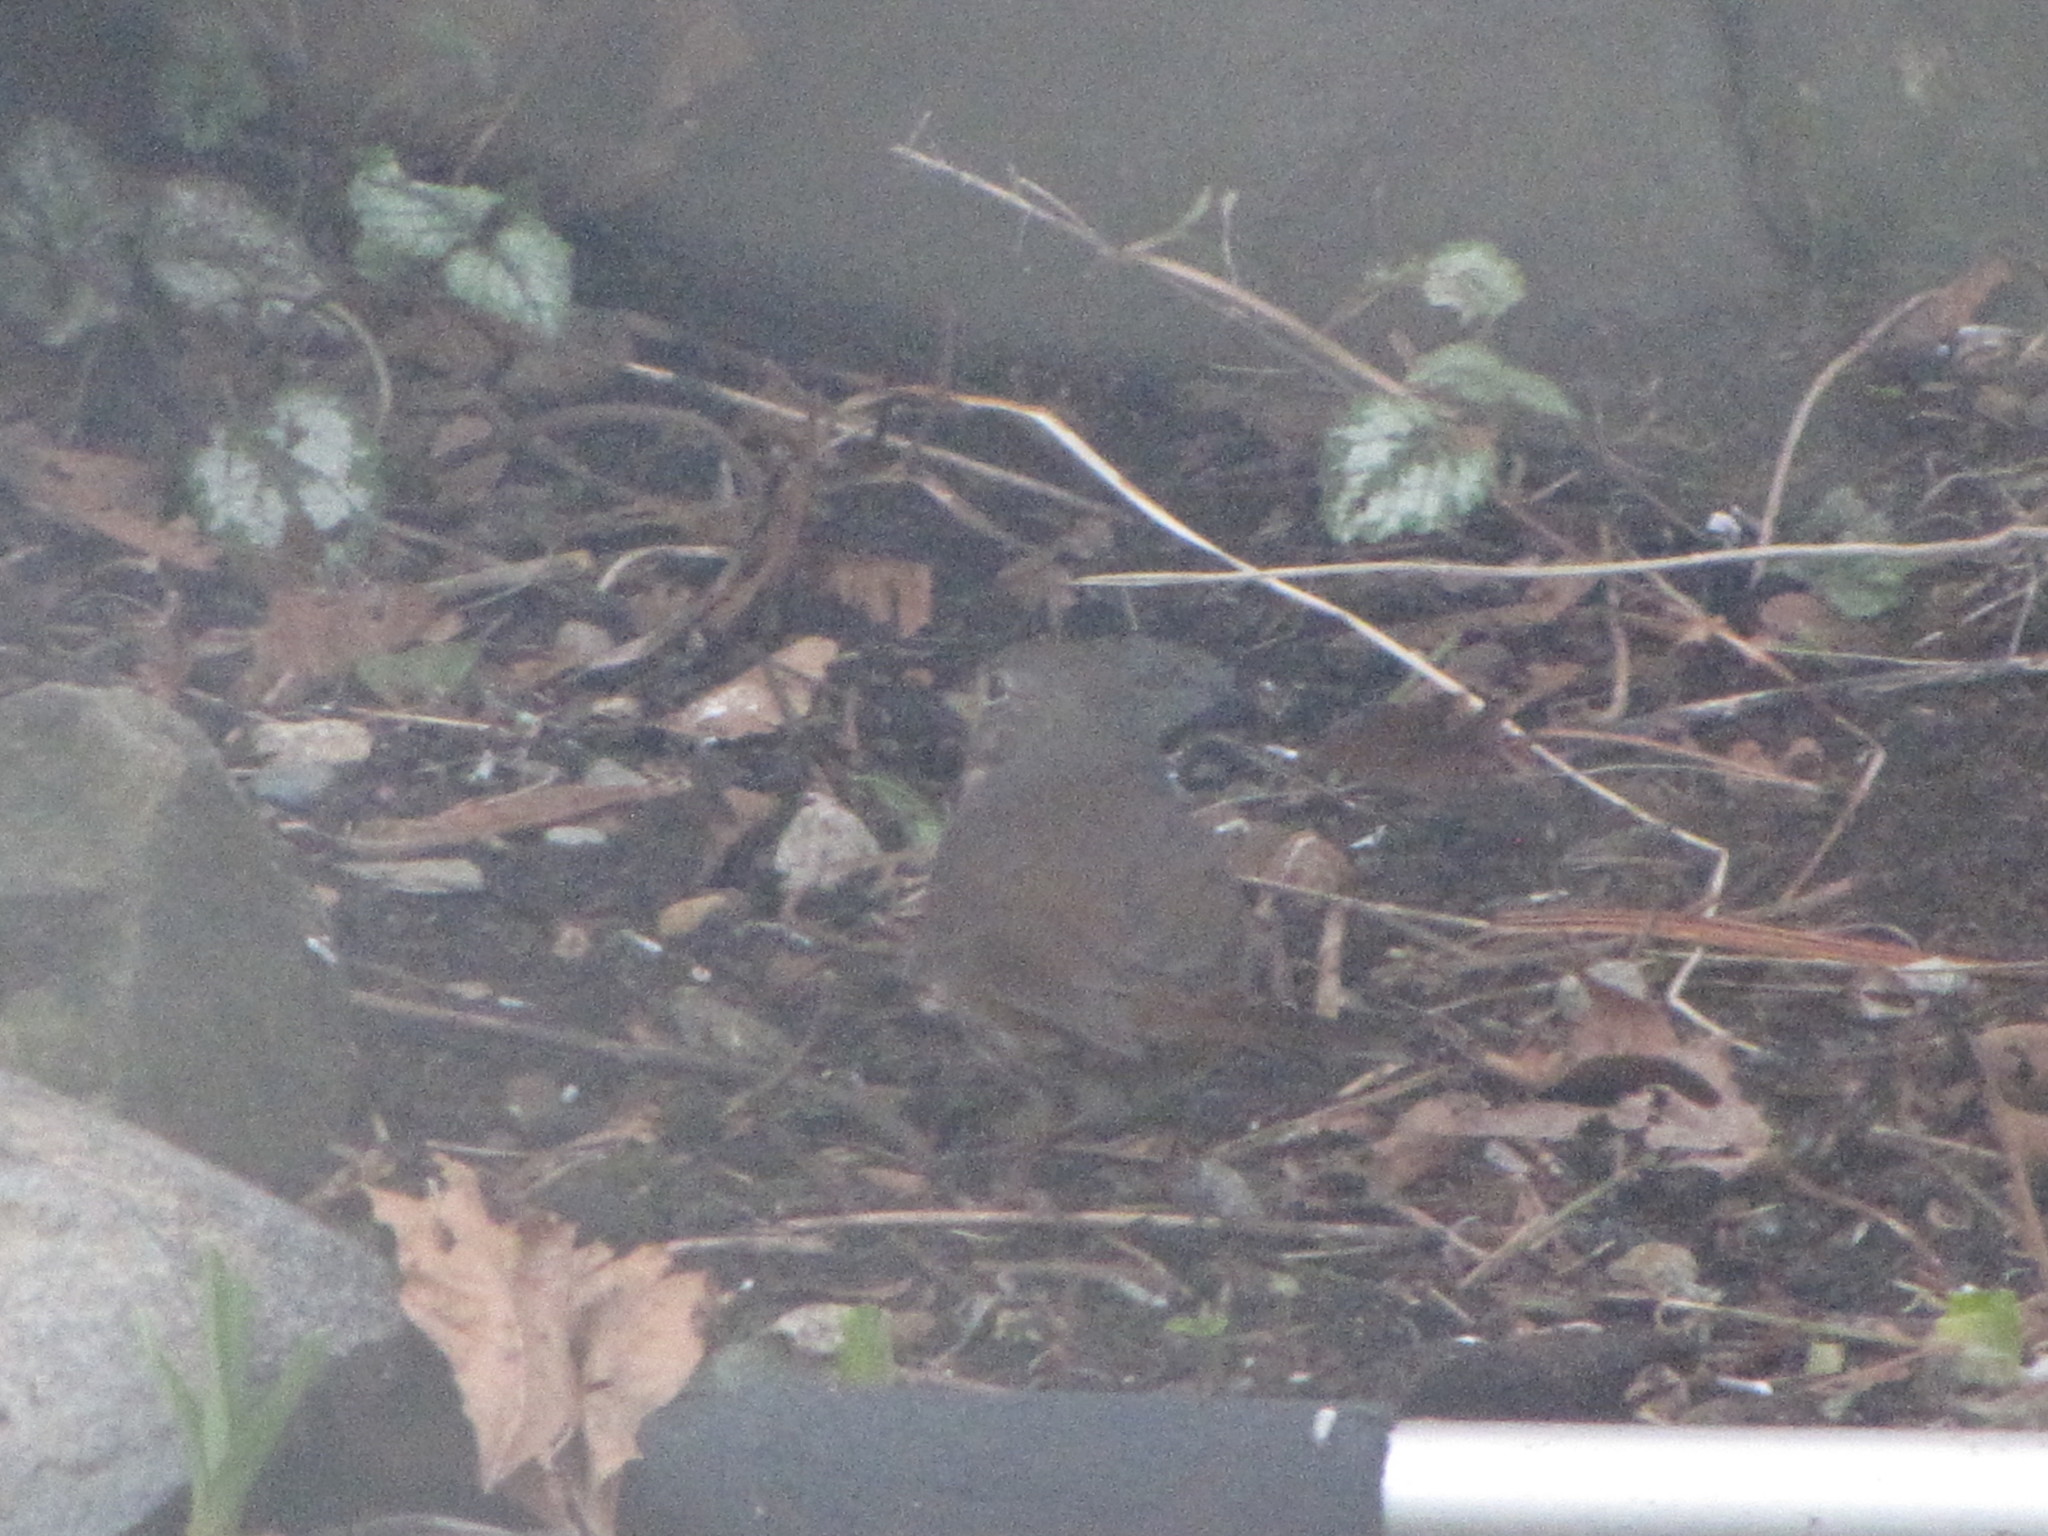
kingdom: Animalia
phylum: Chordata
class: Aves
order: Passeriformes
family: Passerellidae
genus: Passerella
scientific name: Passerella iliaca
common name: Fox sparrow
